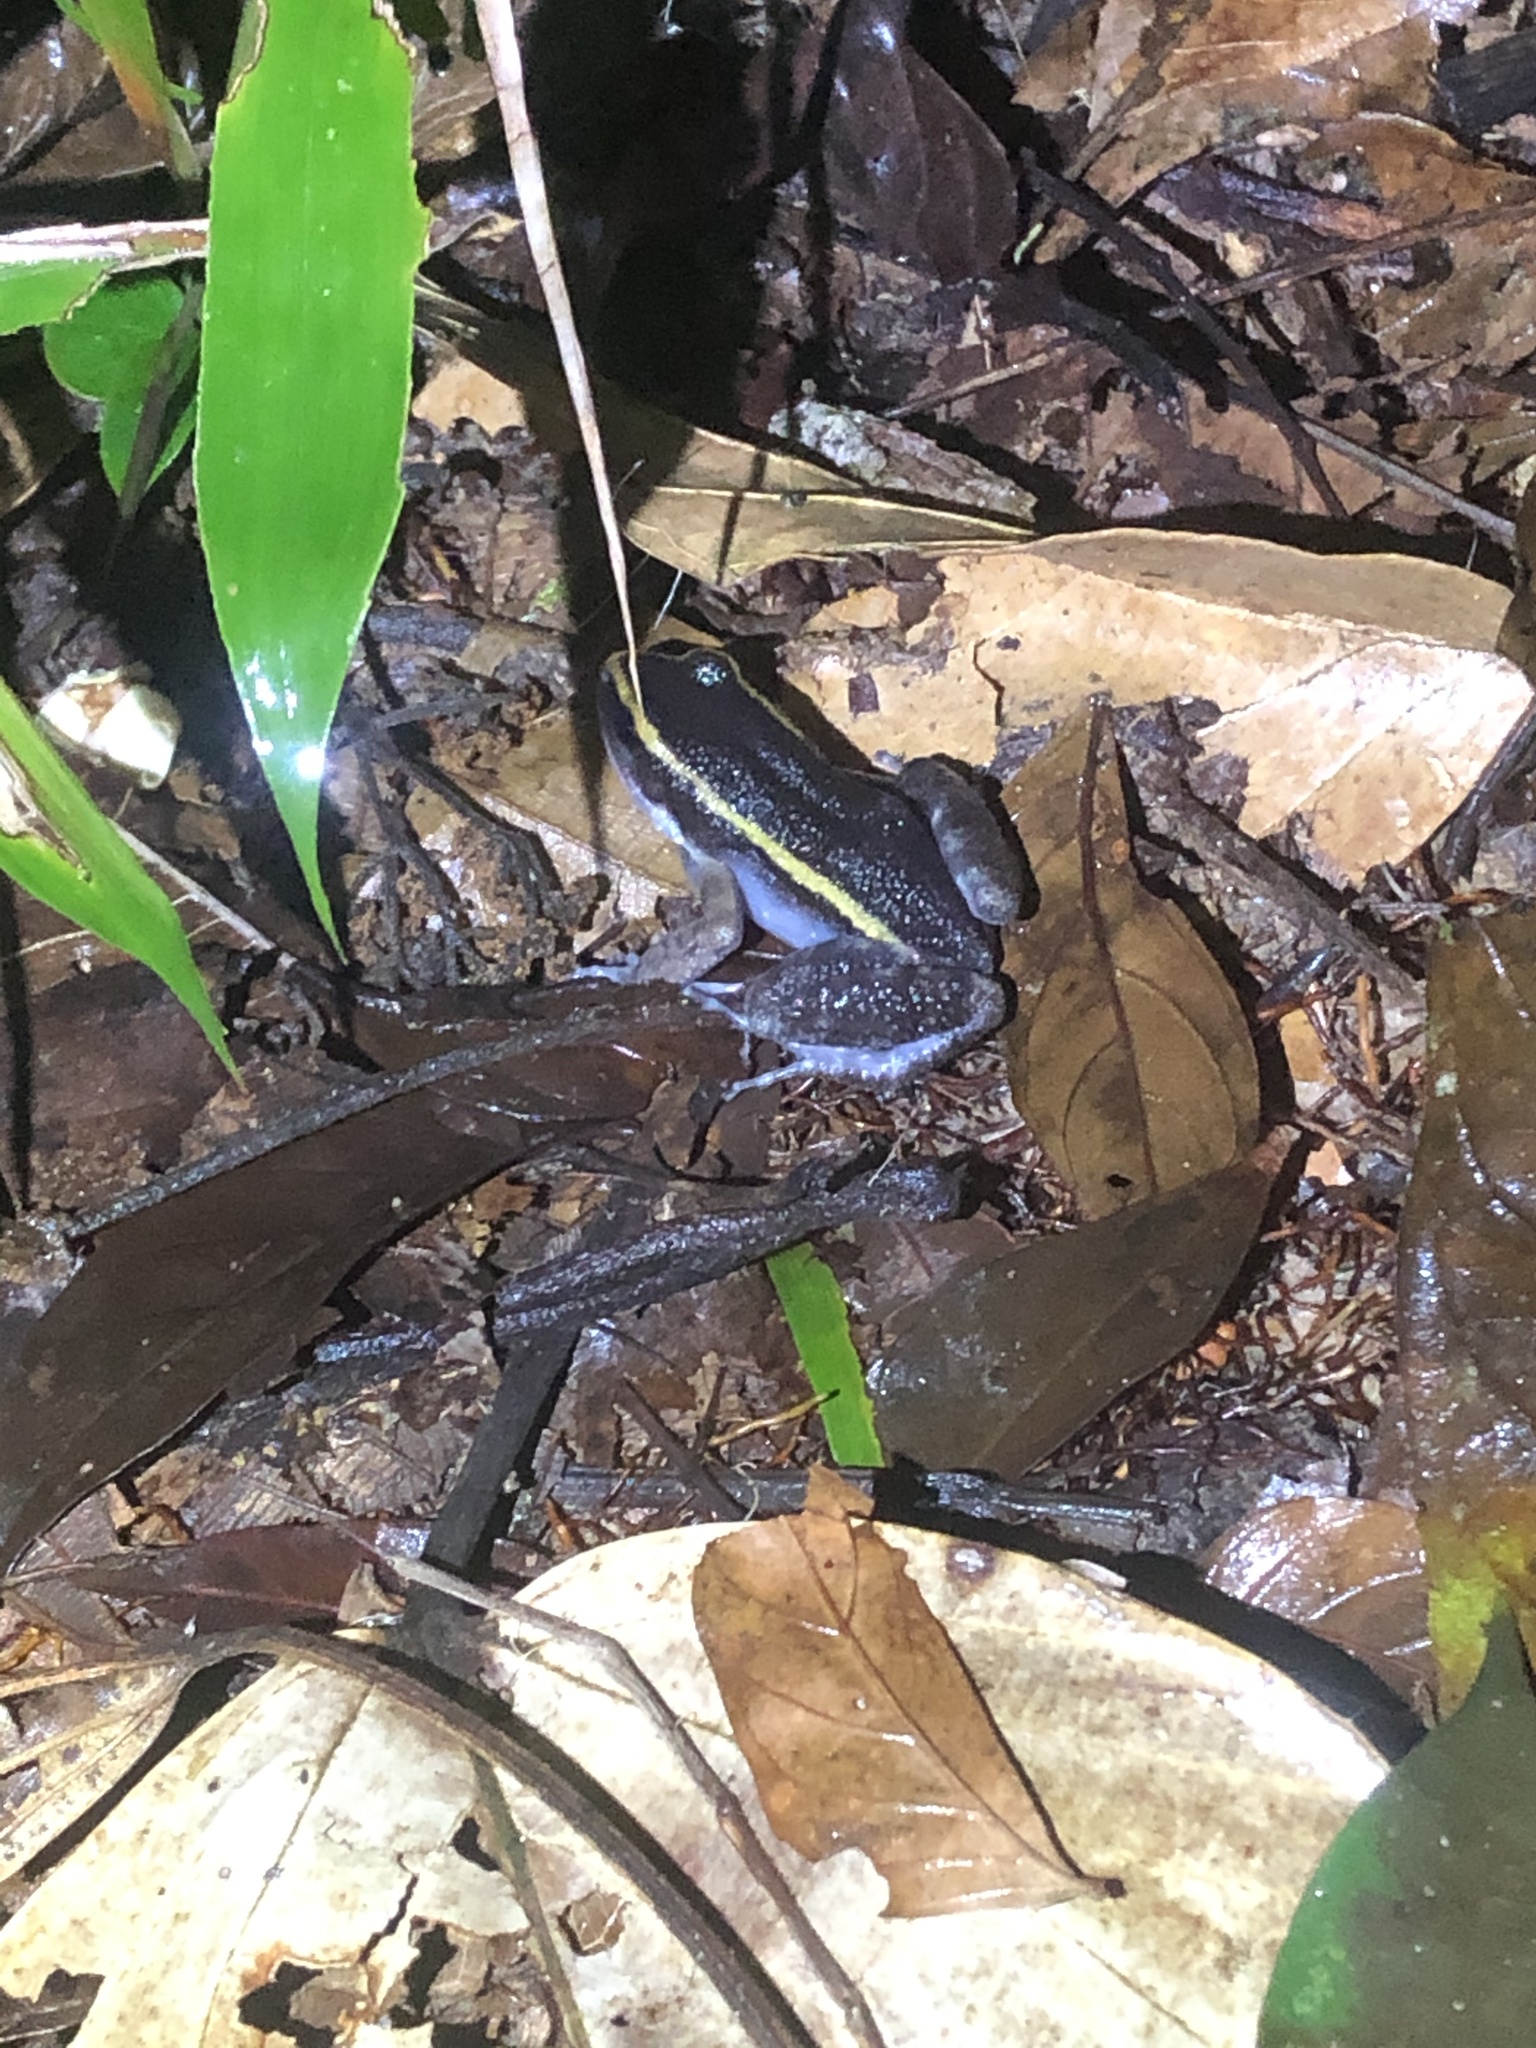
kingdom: Animalia
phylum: Chordata
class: Amphibia
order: Anura
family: Leptodactylidae
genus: Lithodytes
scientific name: Lithodytes lineatus
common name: Gold-striped frog
